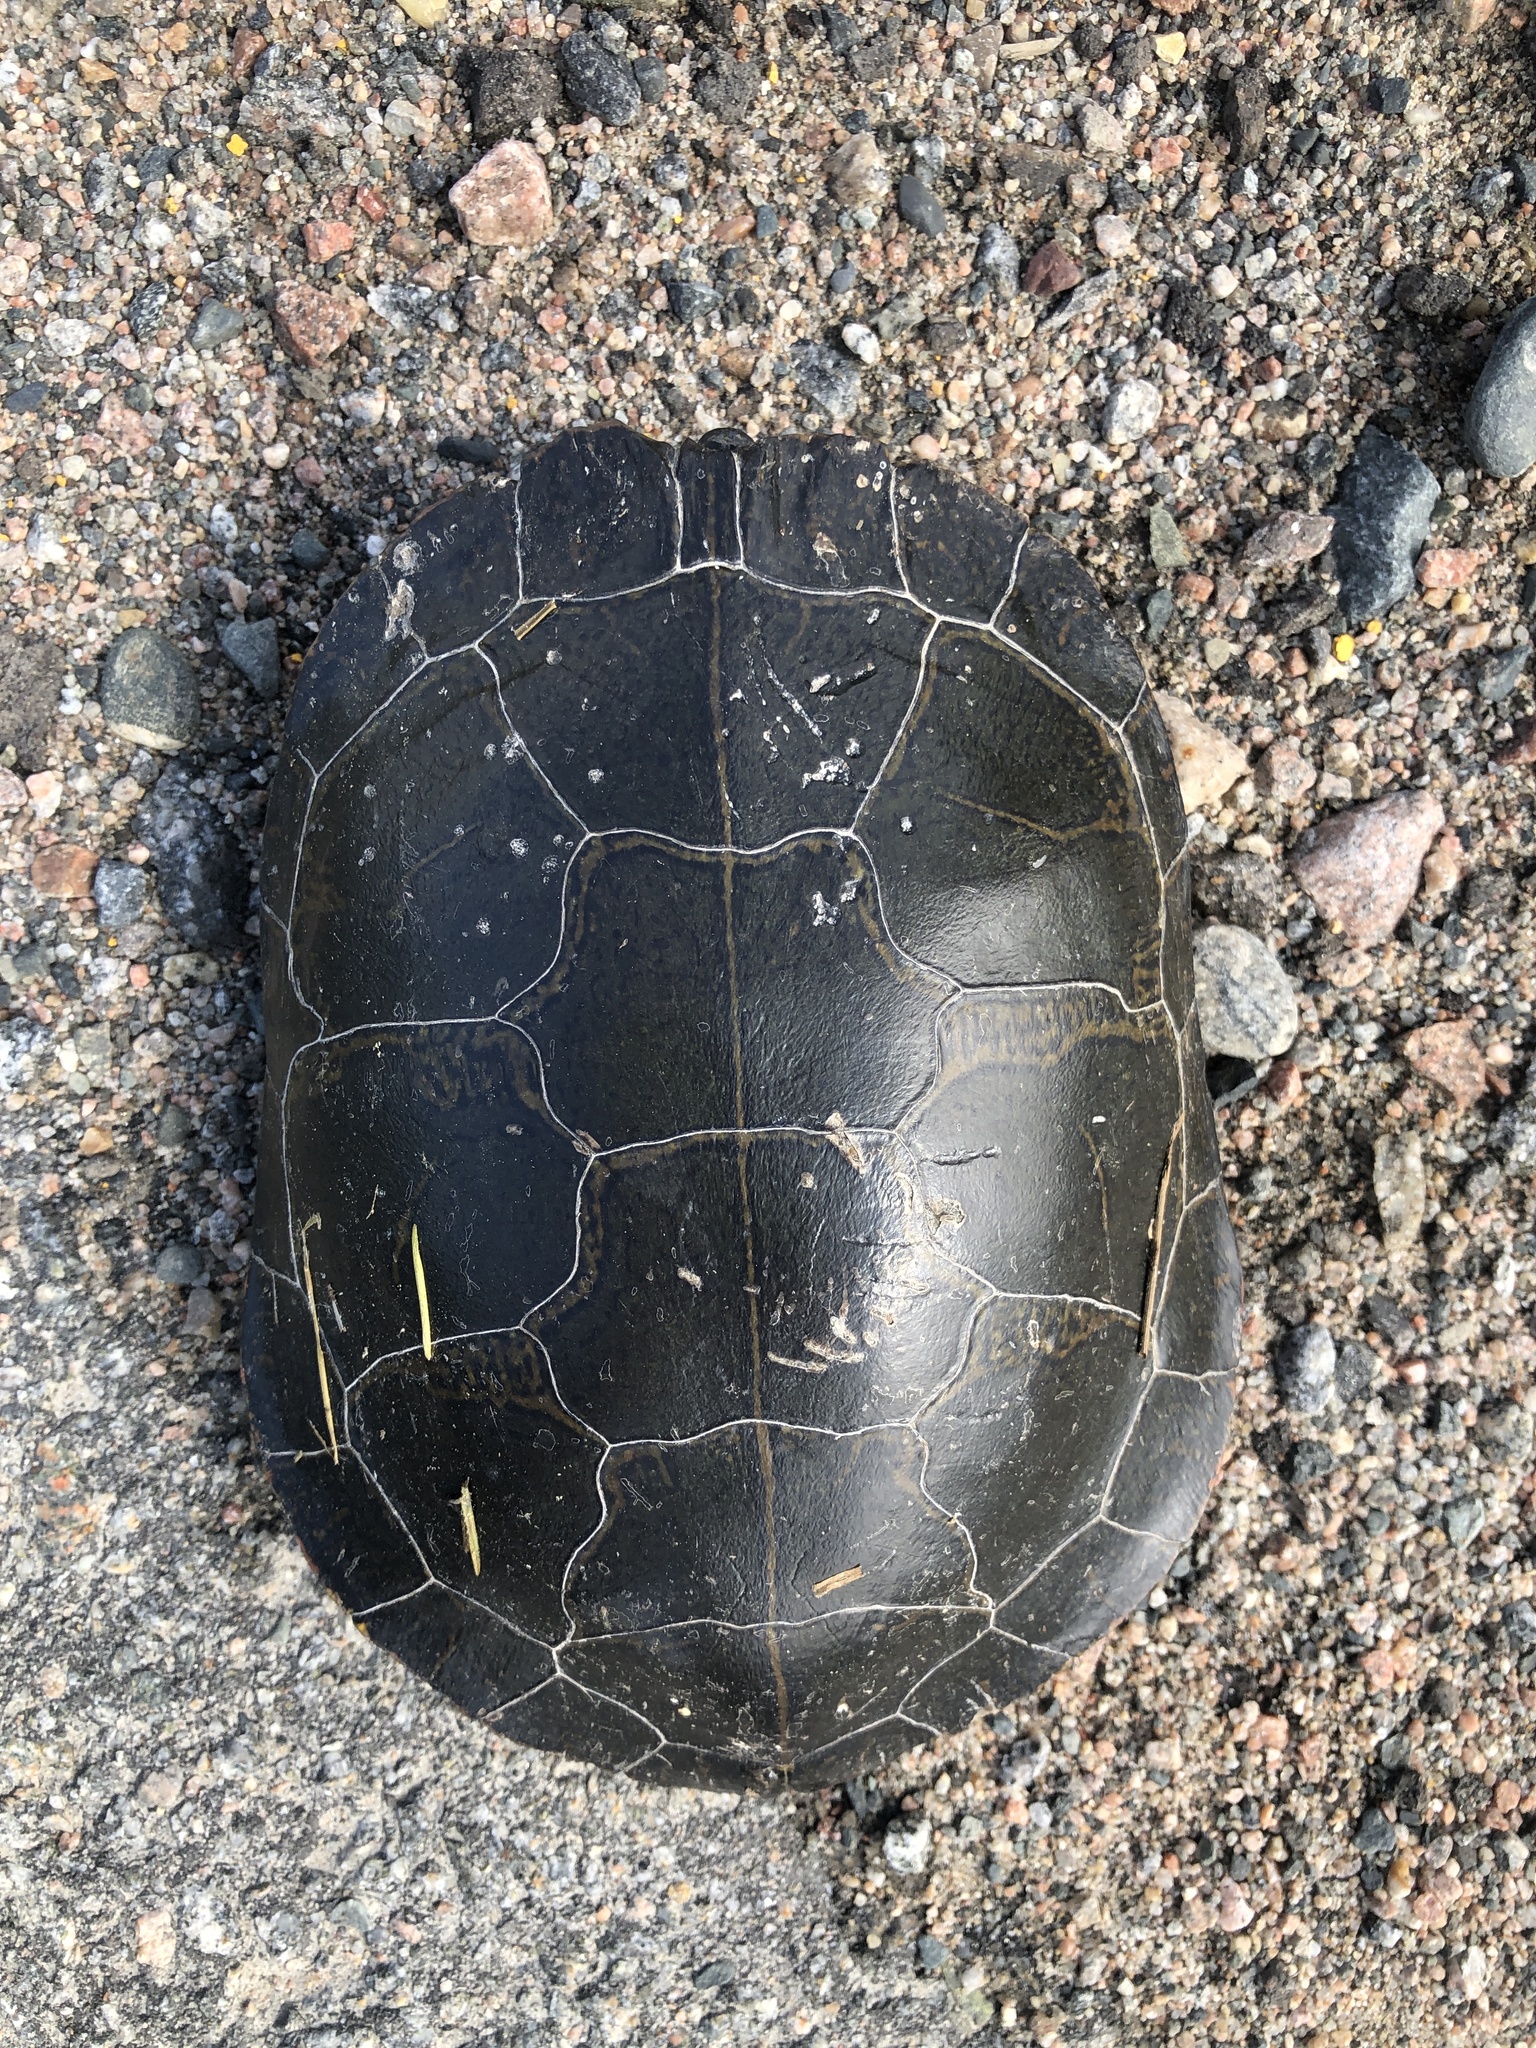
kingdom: Animalia
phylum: Chordata
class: Testudines
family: Emydidae
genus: Chrysemys
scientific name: Chrysemys picta
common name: Painted turtle
